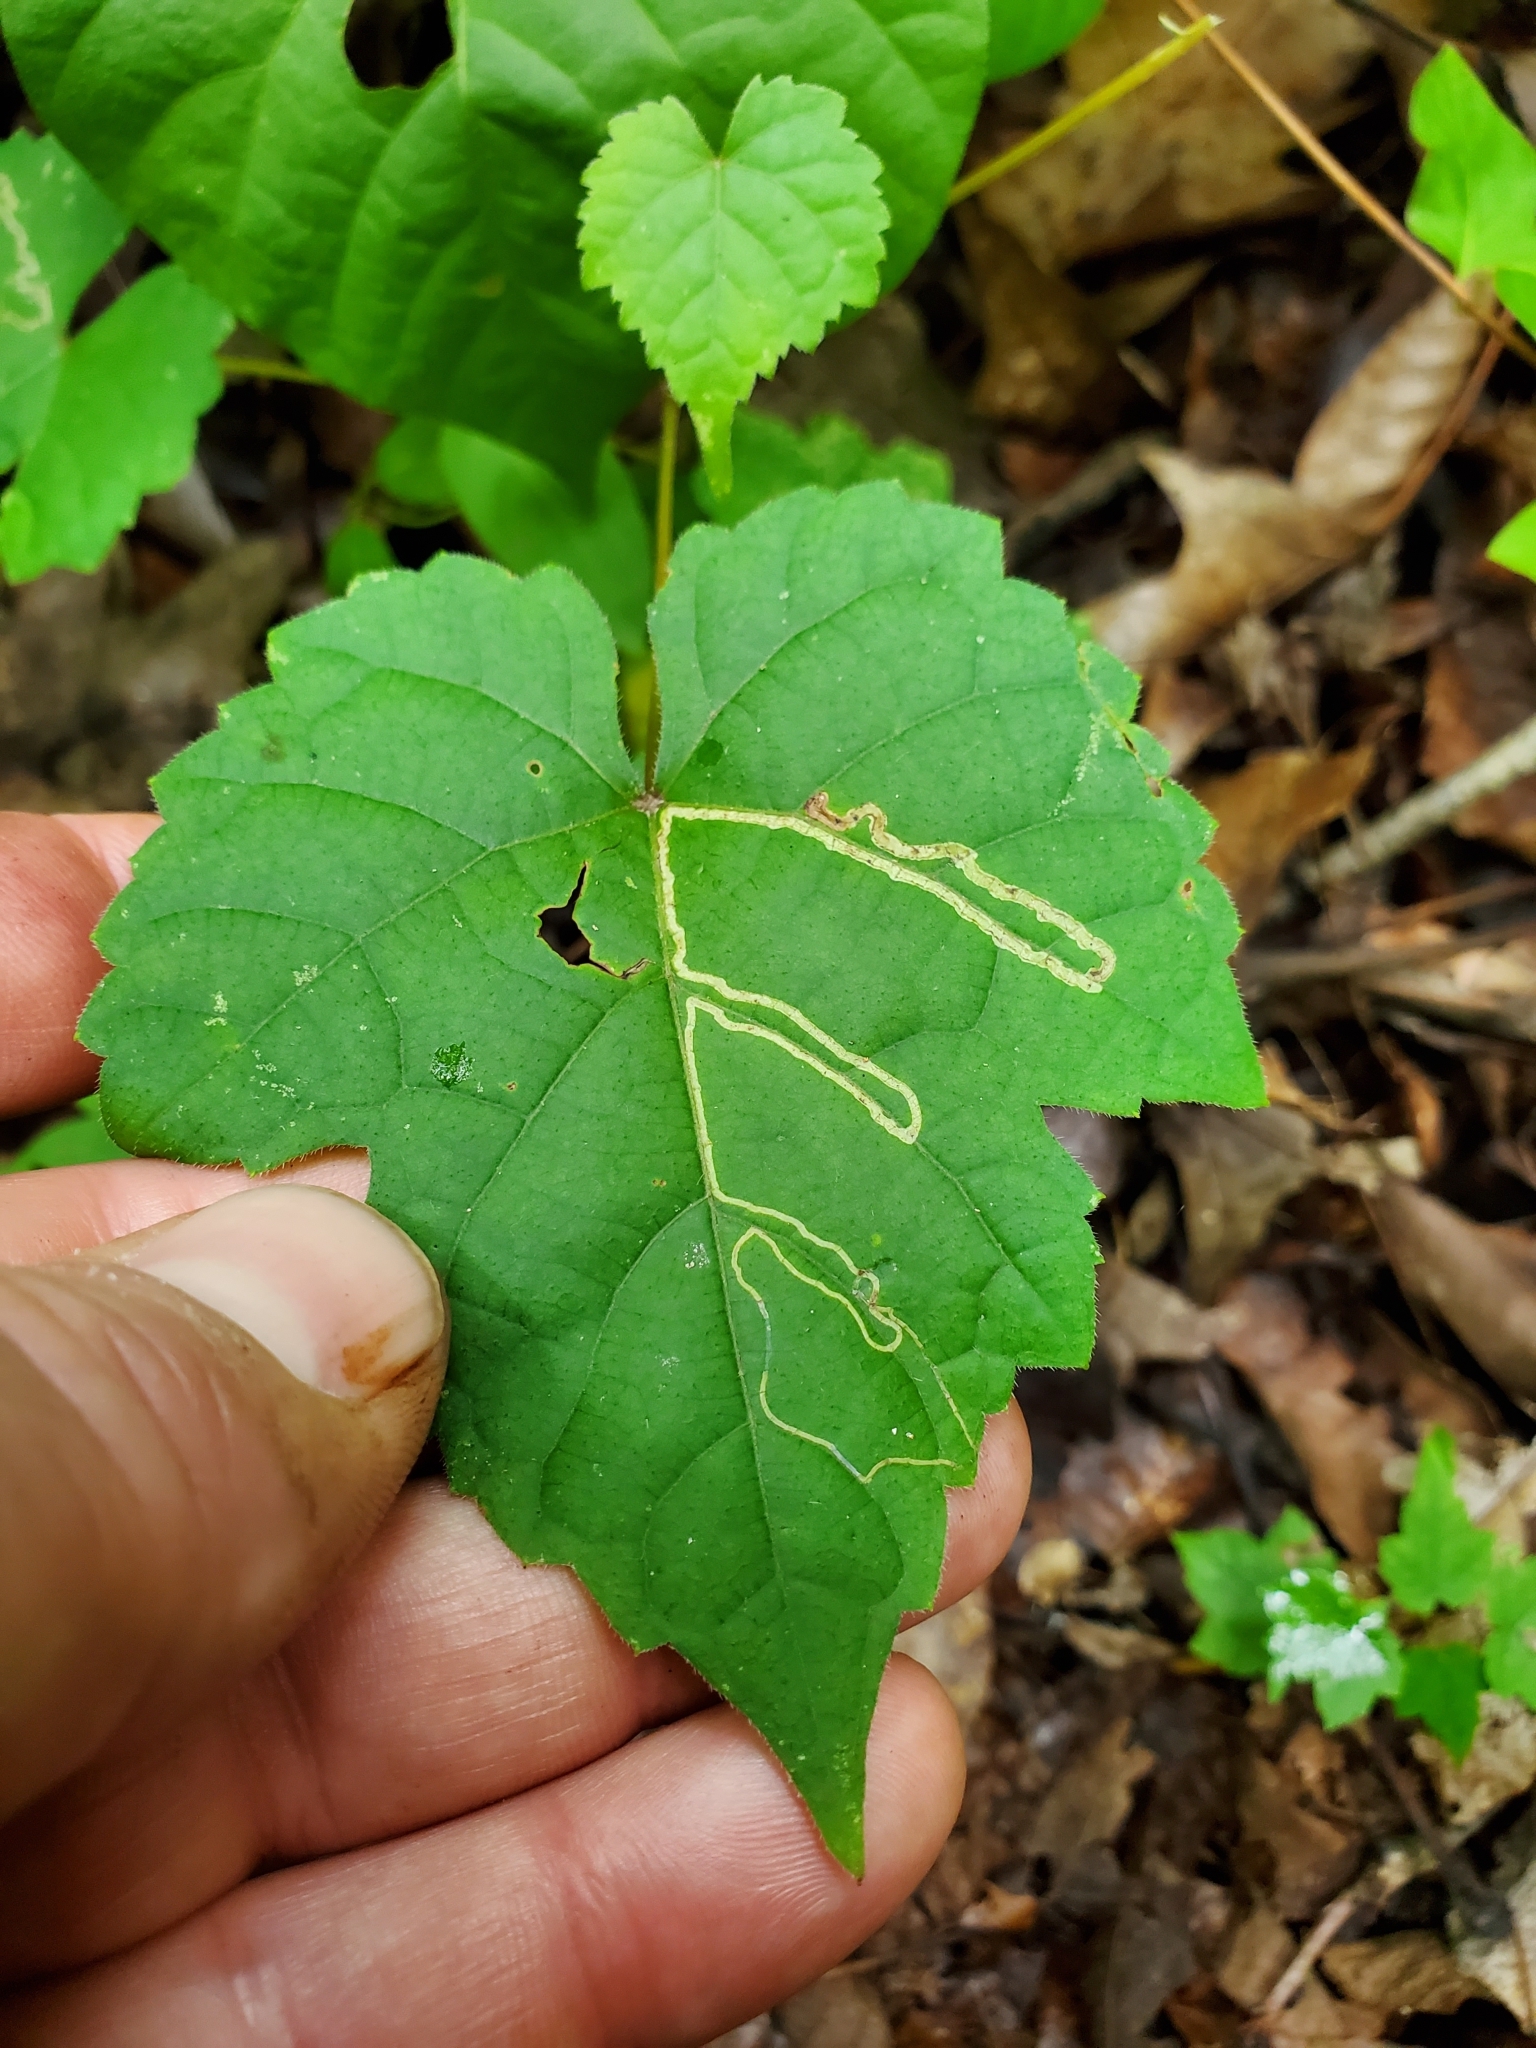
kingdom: Animalia
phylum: Arthropoda
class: Insecta
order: Lepidoptera
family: Gracillariidae
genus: Phyllocnistis
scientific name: Phyllocnistis vitifoliella
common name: Grape leaf-miner moth
